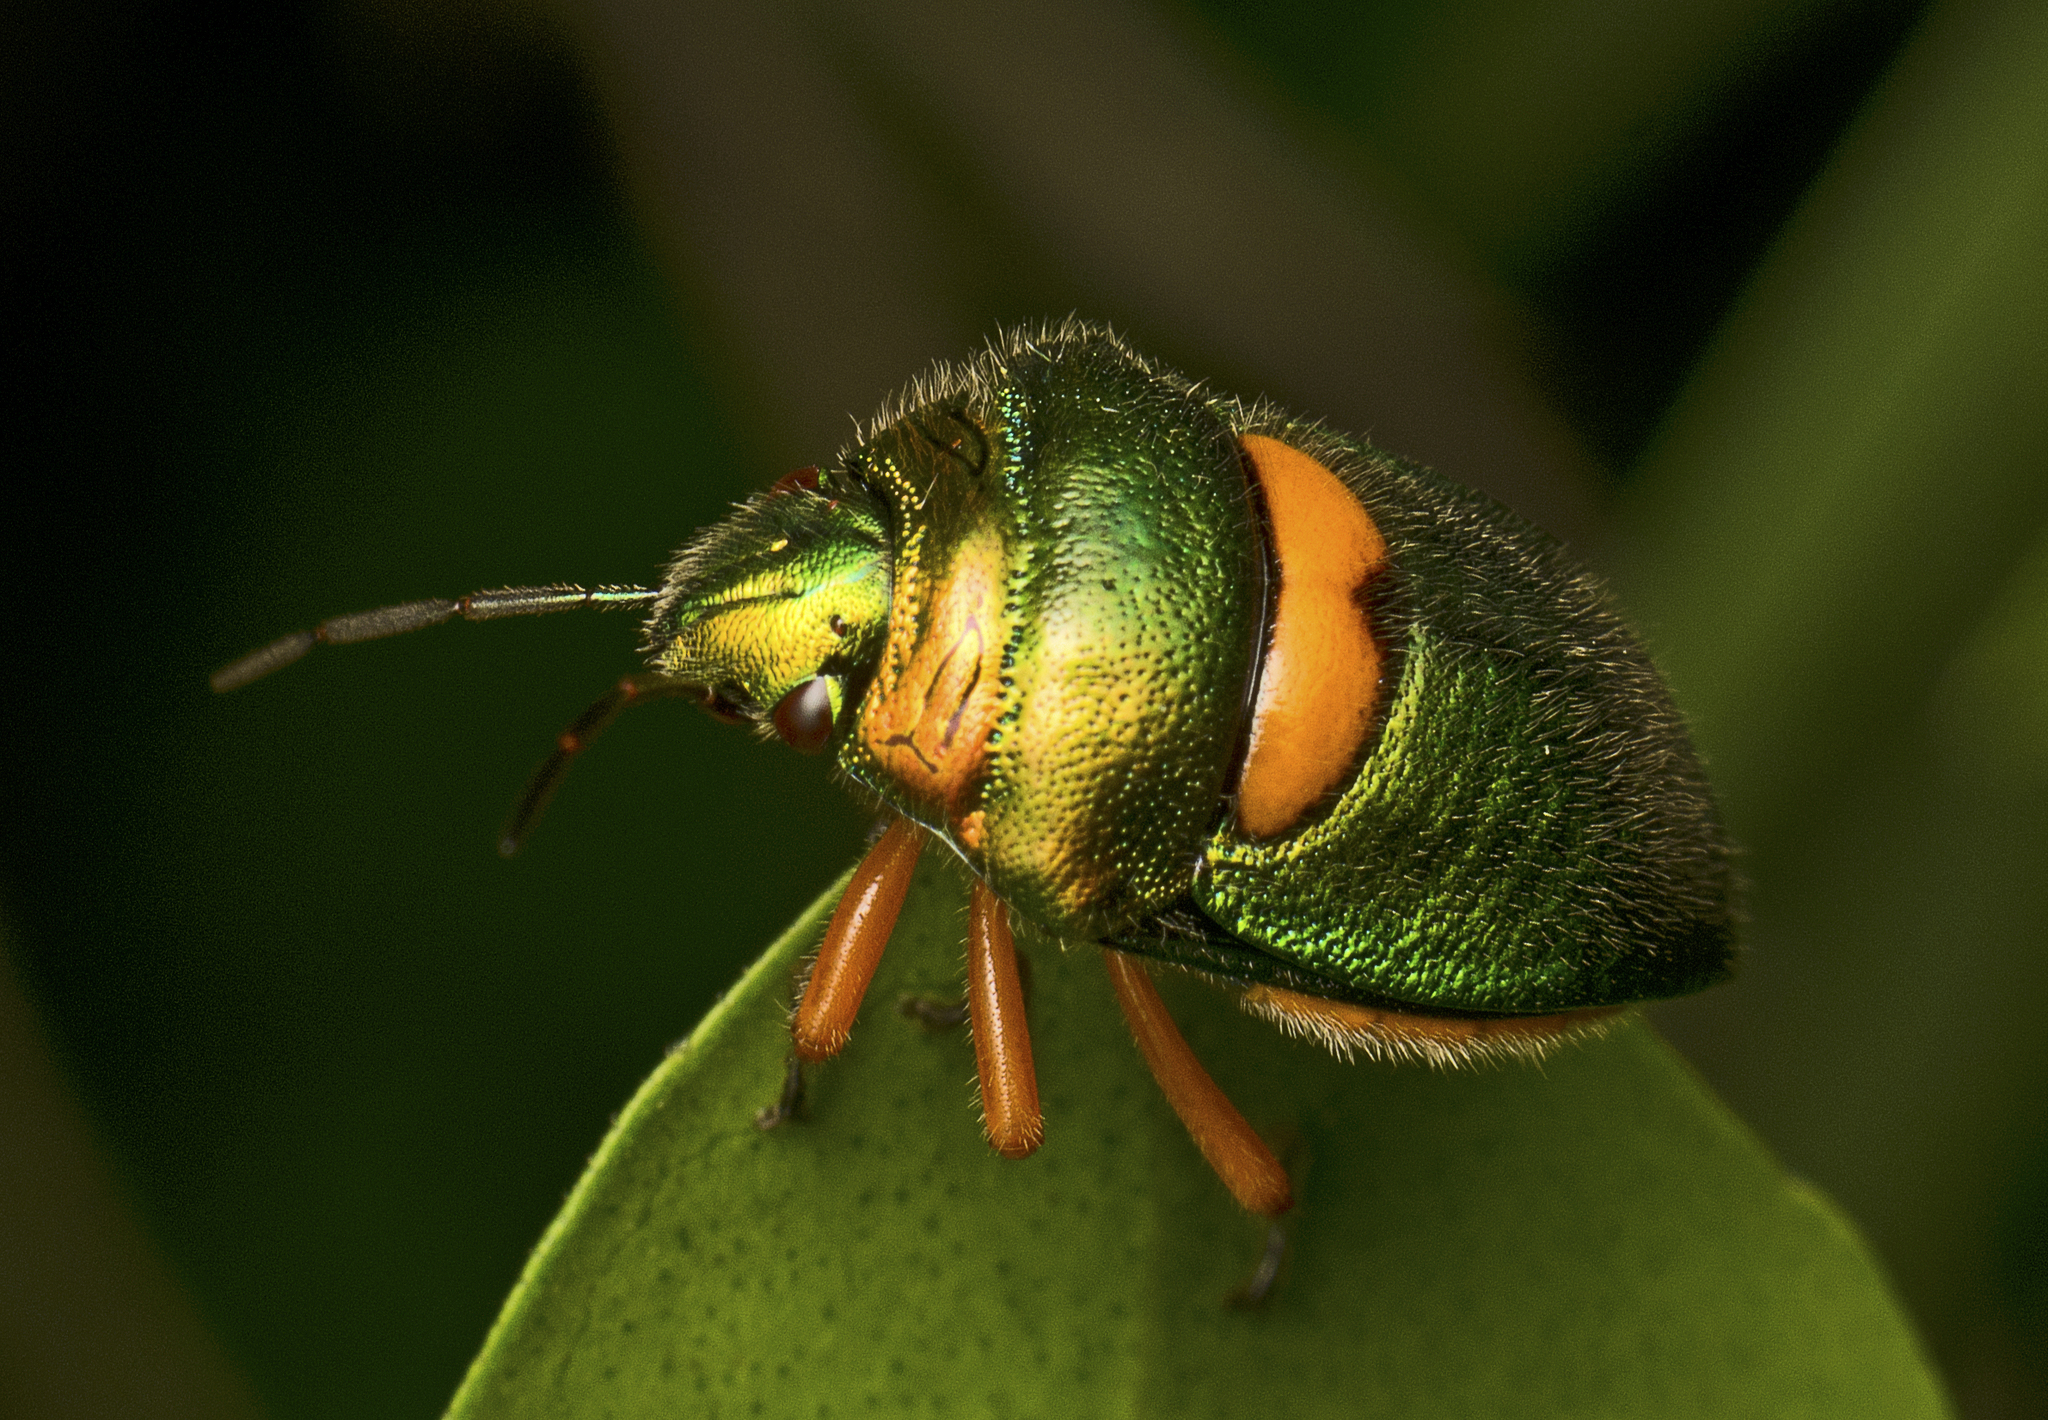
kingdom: Animalia
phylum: Arthropoda
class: Insecta
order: Hemiptera
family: Scutelleridae
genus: Lampromicra
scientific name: Lampromicra senator
